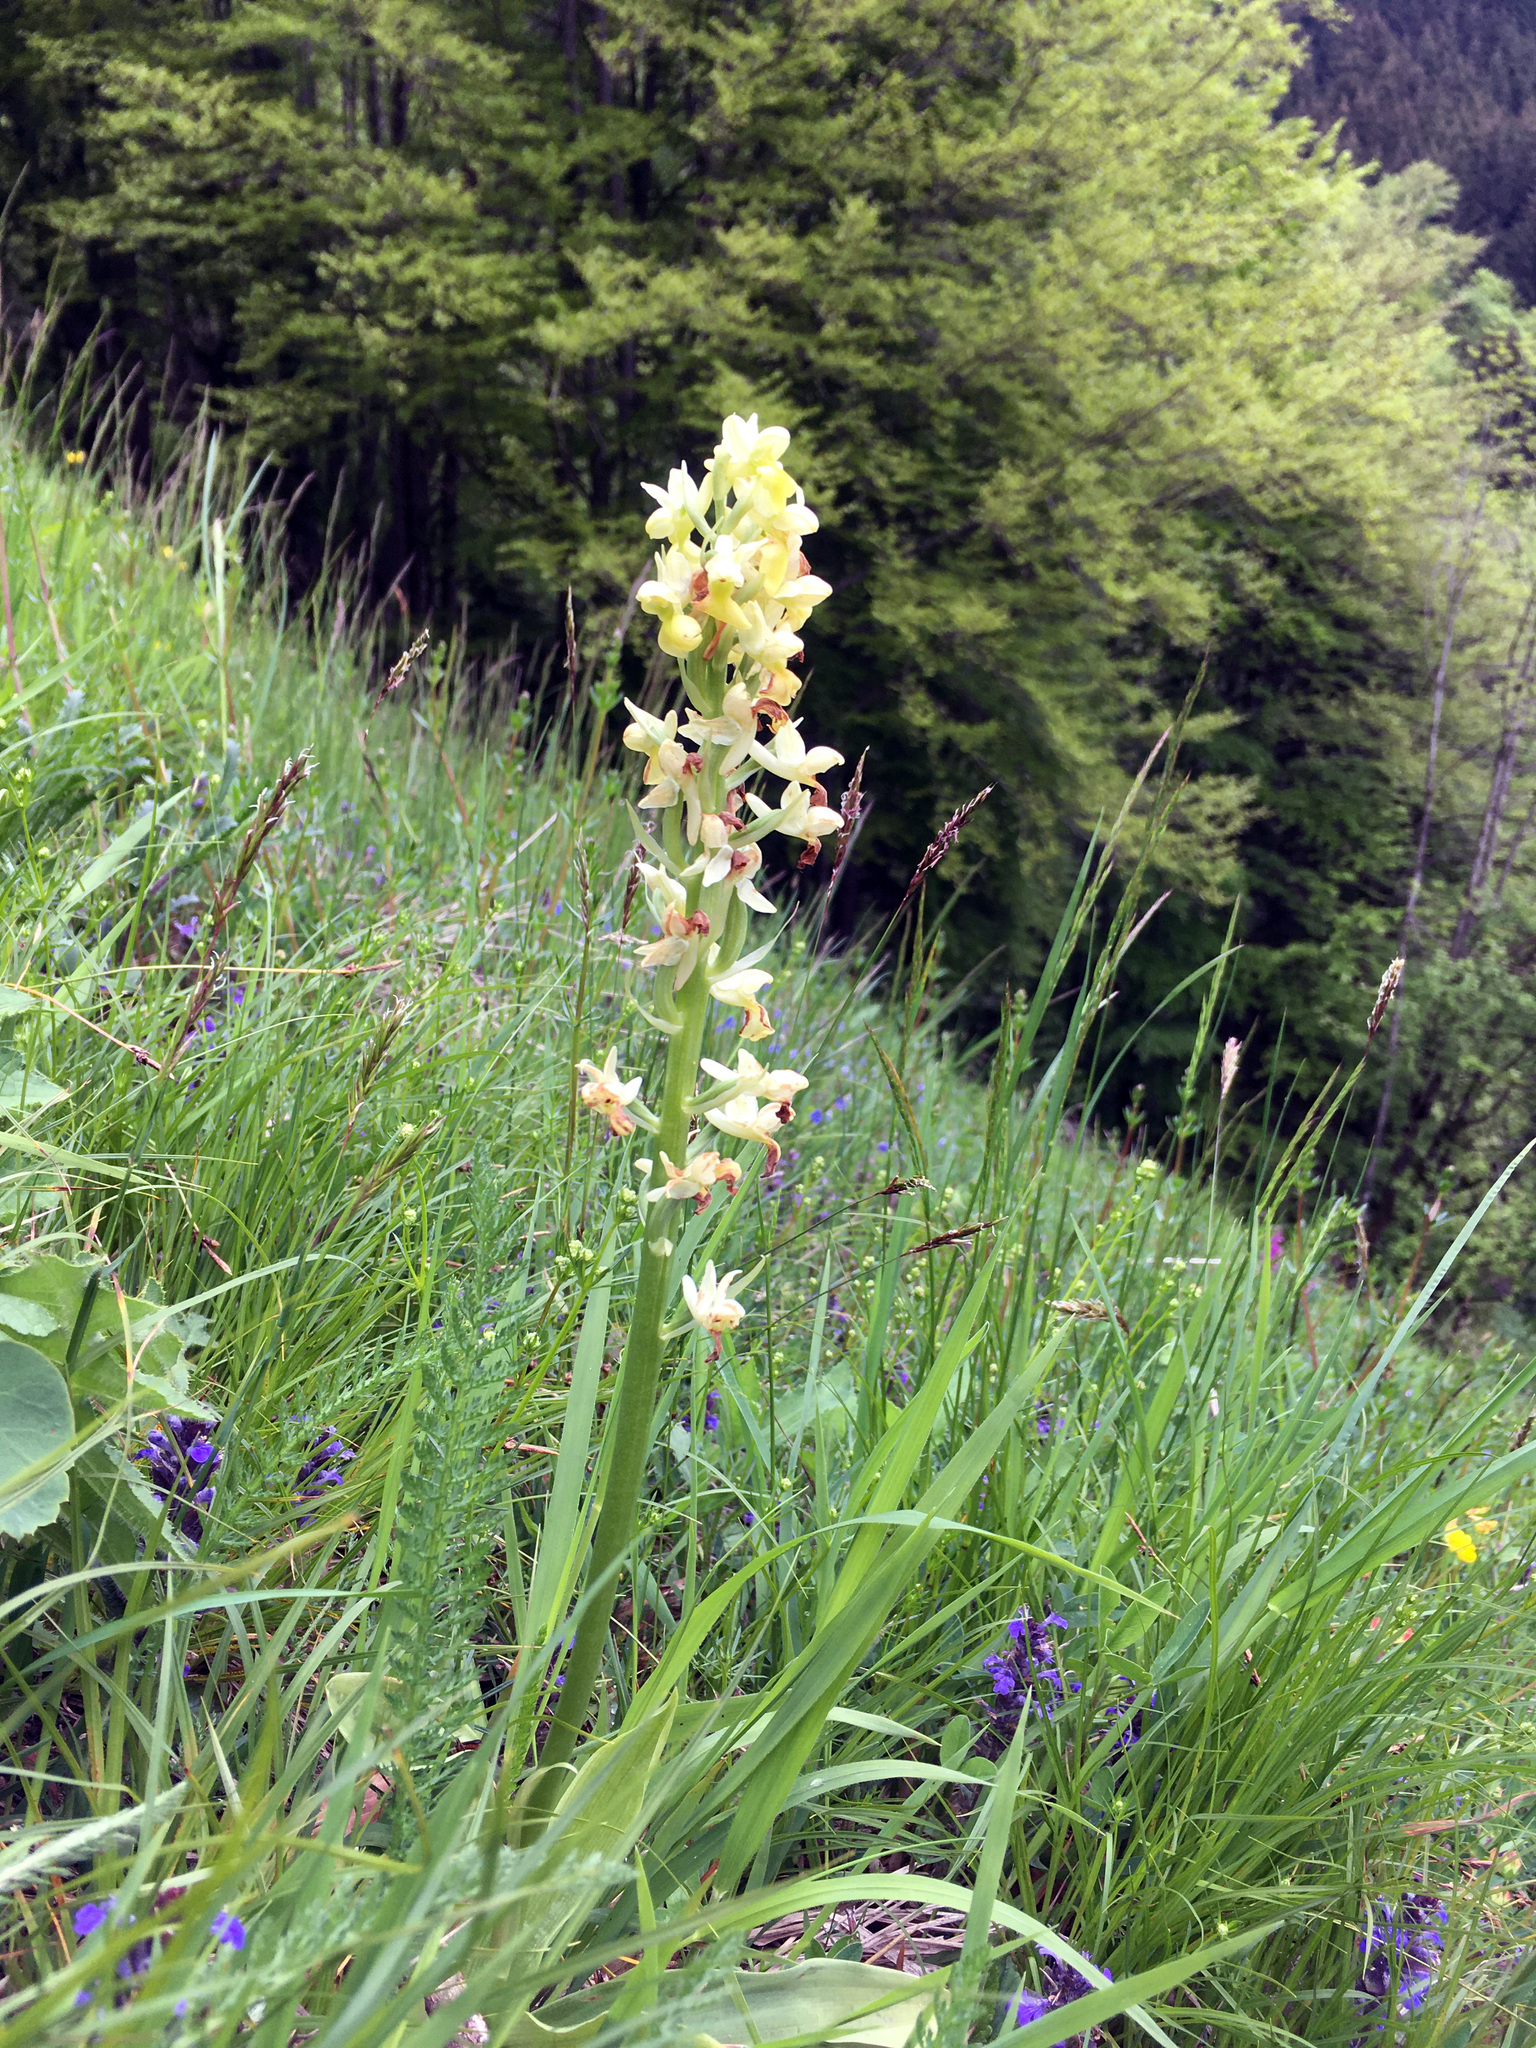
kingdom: Plantae
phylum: Tracheophyta
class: Liliopsida
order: Asparagales
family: Orchidaceae
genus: Orchis
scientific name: Orchis pallens
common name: Pale-flowered orchid
